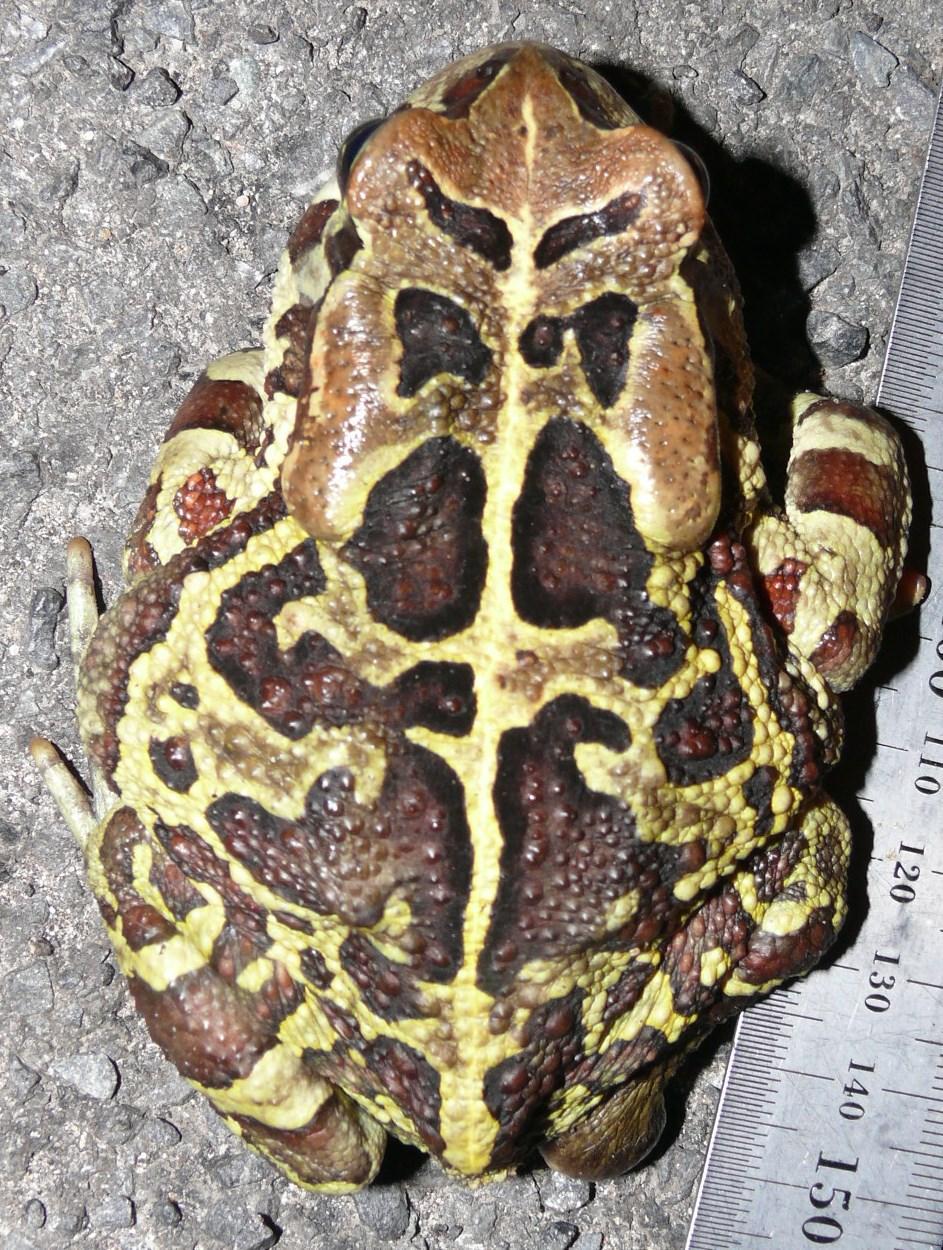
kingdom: Animalia
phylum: Chordata
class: Amphibia
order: Anura
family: Bufonidae
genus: Sclerophrys
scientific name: Sclerophrys pantherina
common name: Panther toad
